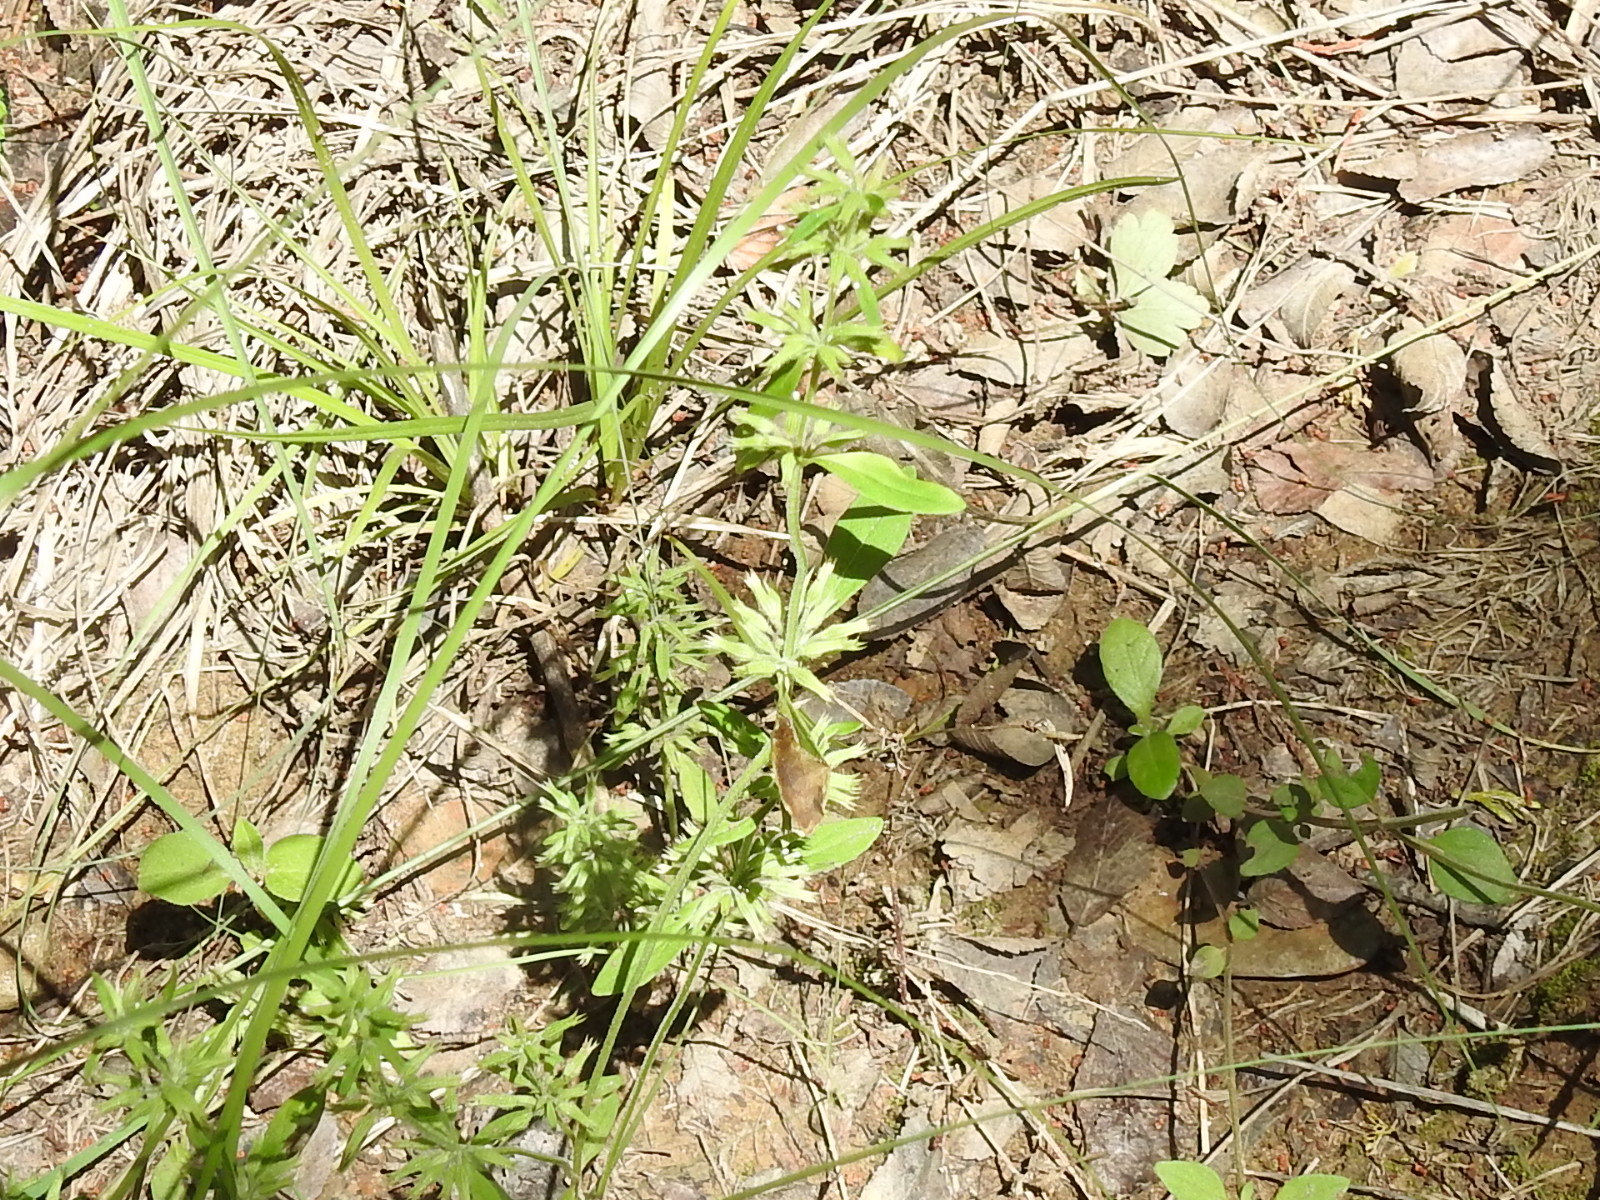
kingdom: Plantae
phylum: Tracheophyta
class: Magnoliopsida
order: Lamiales
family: Lamiaceae
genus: Hedeoma
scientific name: Hedeoma acinoides
